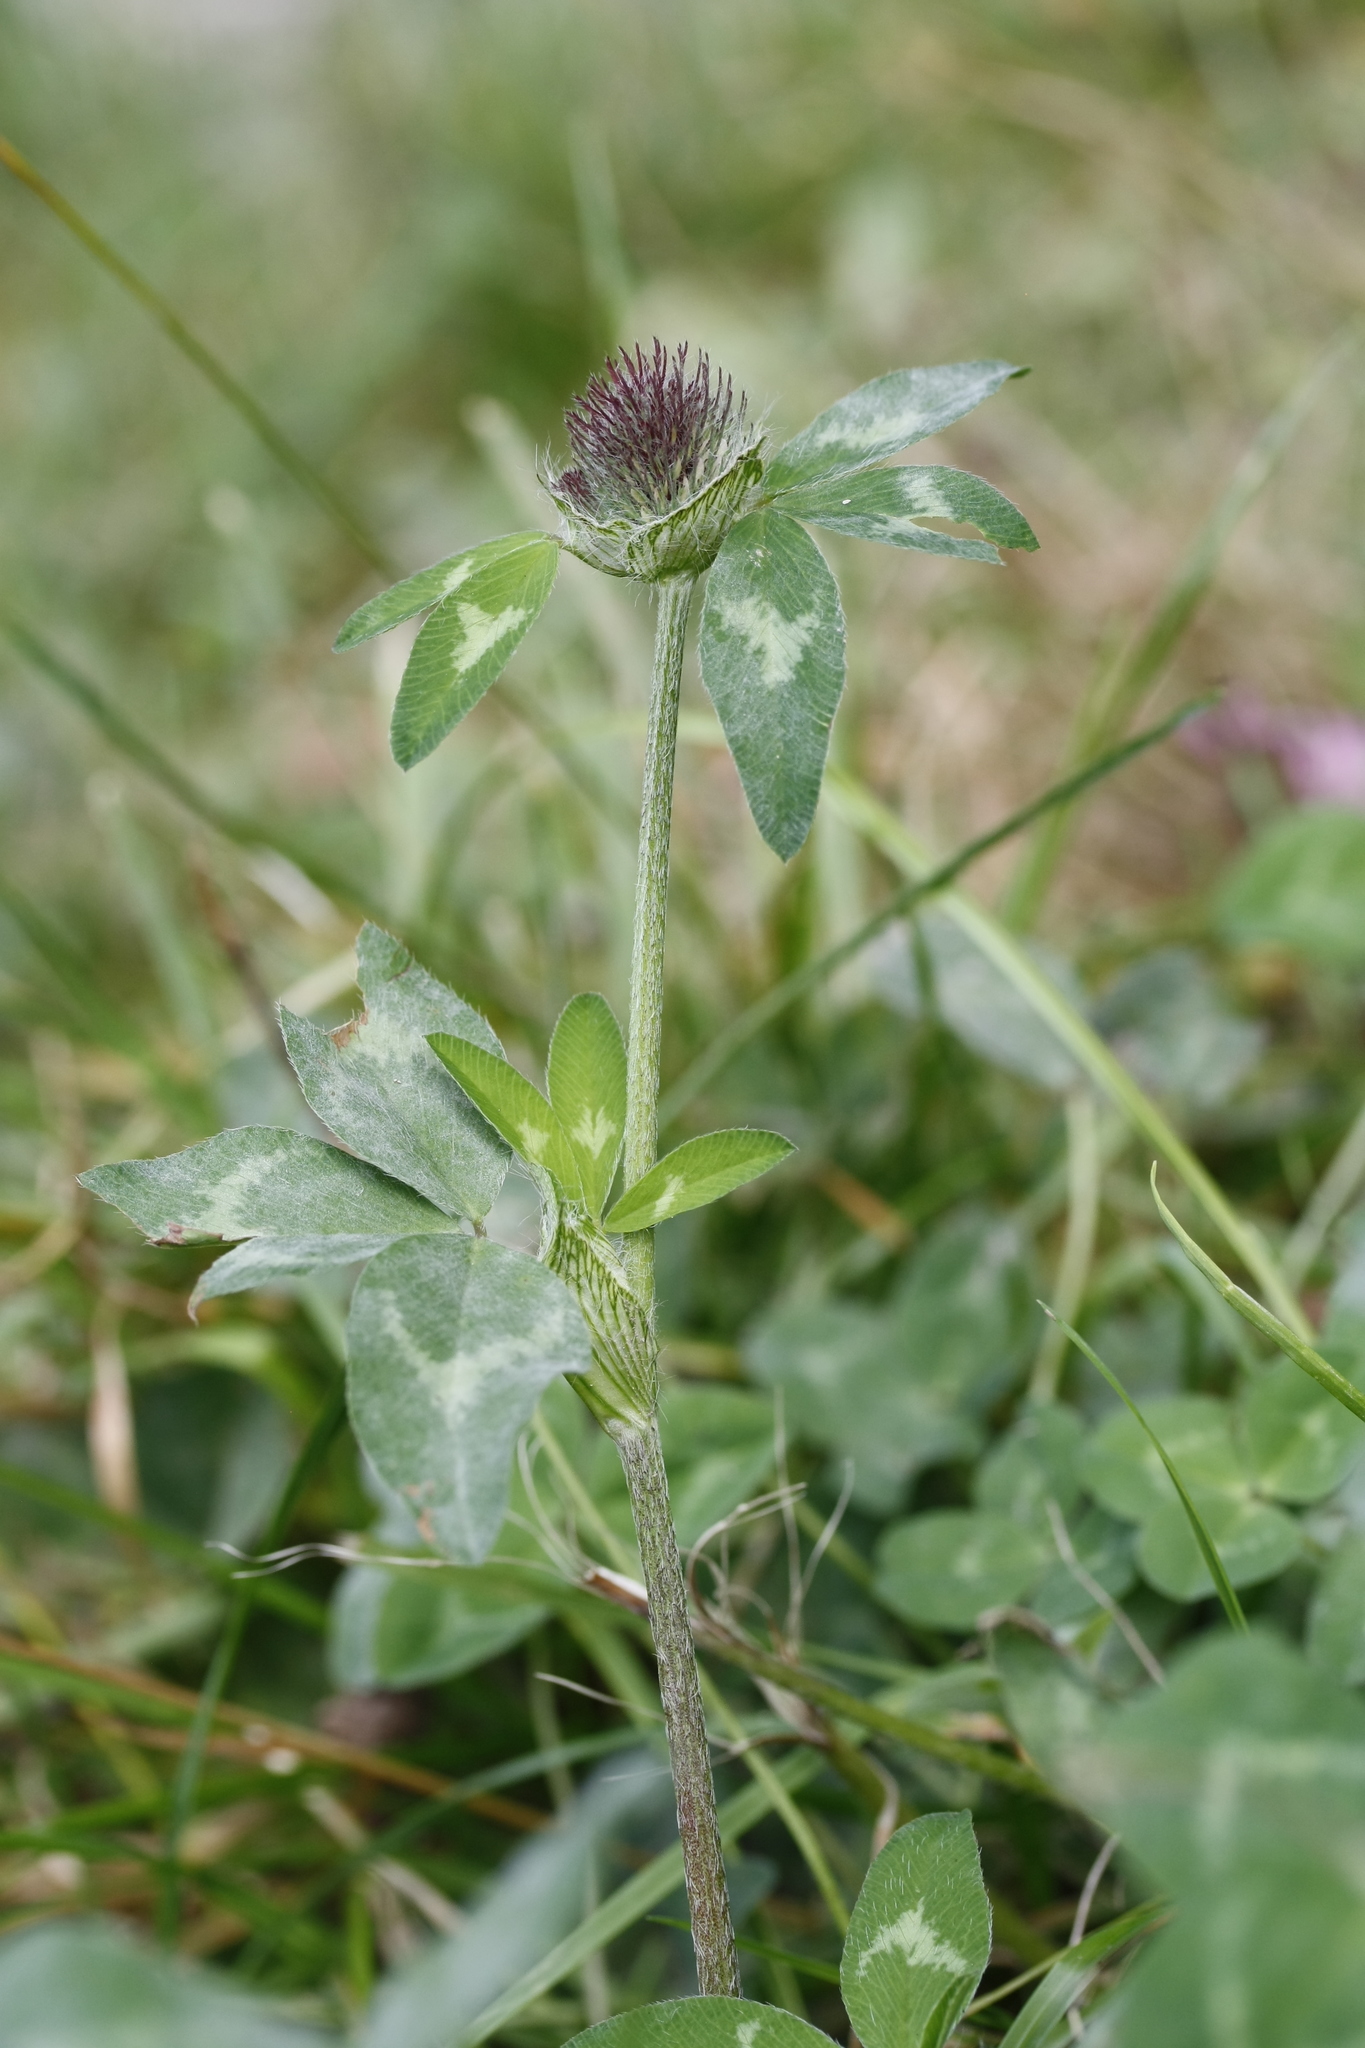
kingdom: Plantae
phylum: Tracheophyta
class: Magnoliopsida
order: Fabales
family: Fabaceae
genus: Trifolium
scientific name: Trifolium pratense
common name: Red clover
